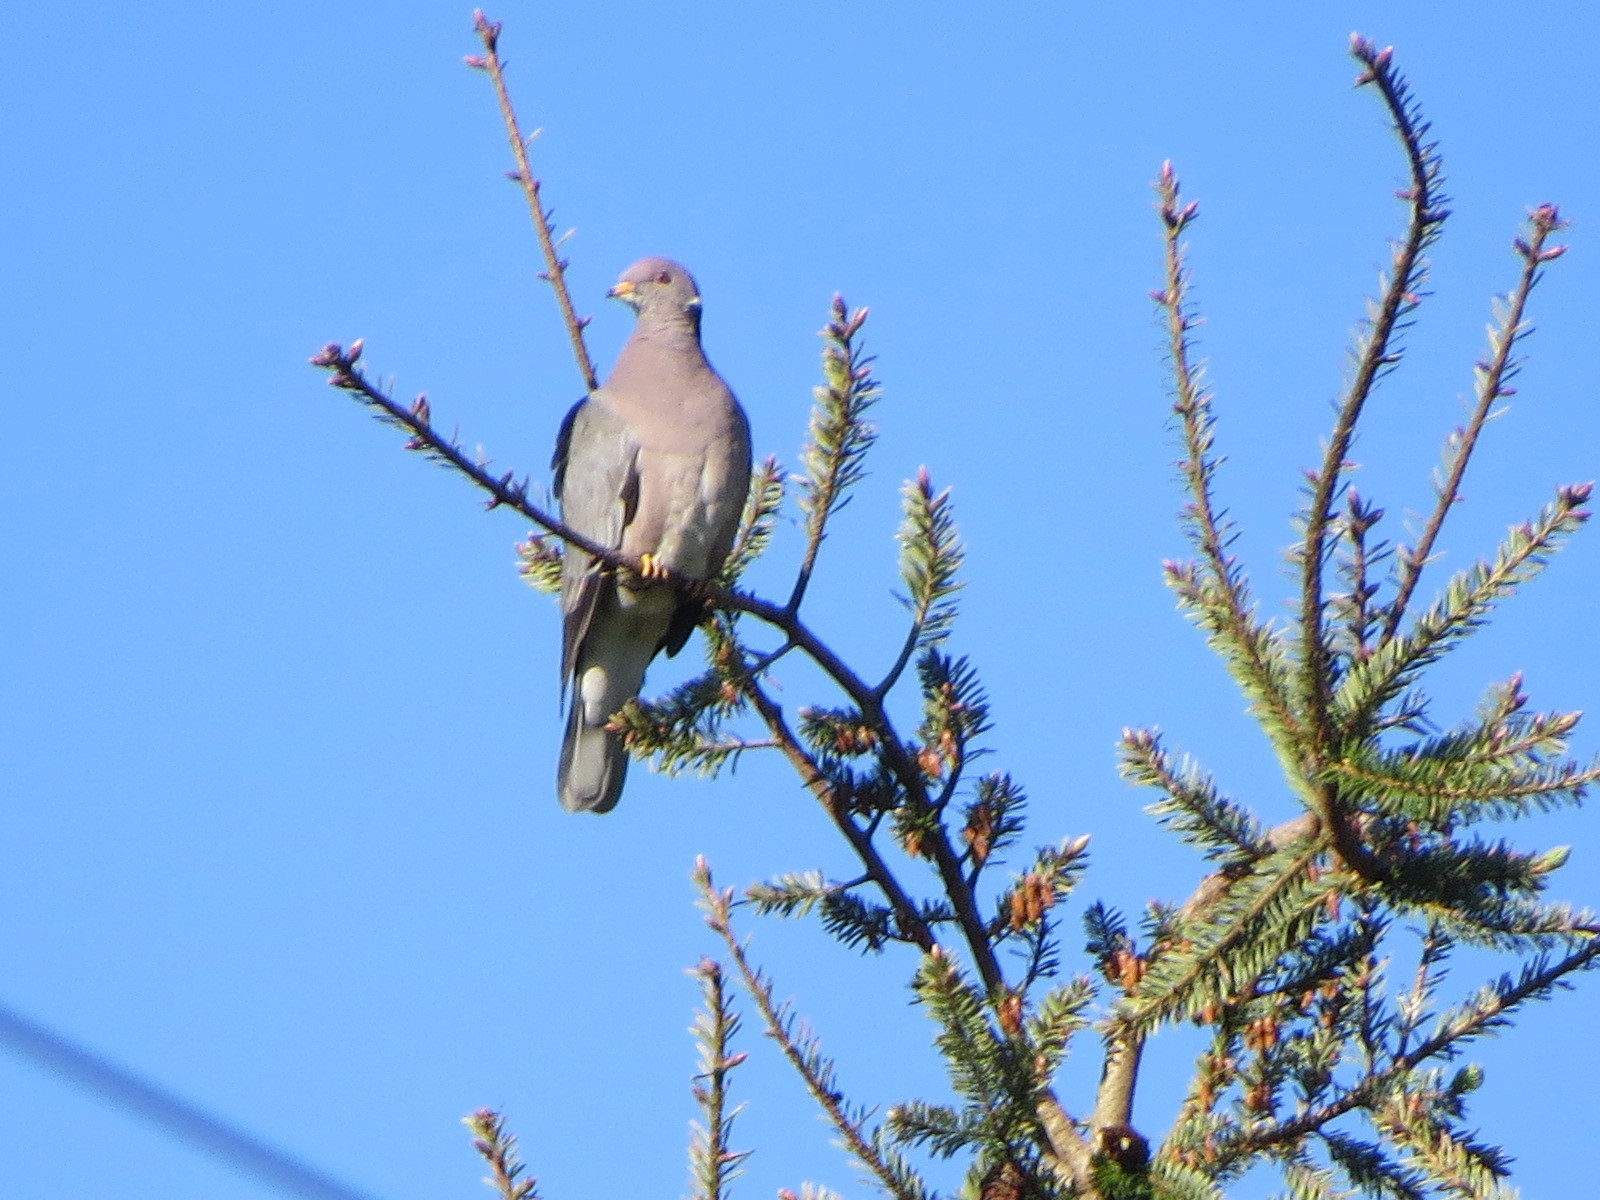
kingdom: Animalia
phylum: Chordata
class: Aves
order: Columbiformes
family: Columbidae
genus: Patagioenas
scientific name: Patagioenas fasciata
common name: Band-tailed pigeon
